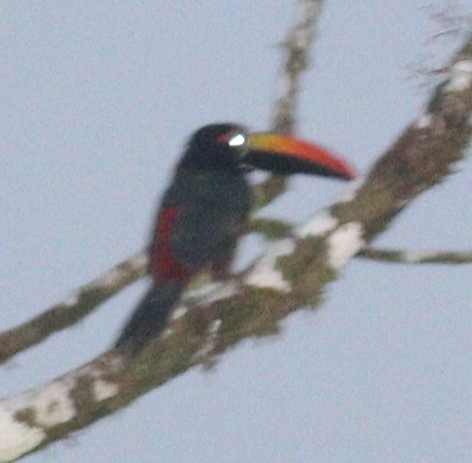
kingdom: Animalia
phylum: Chordata
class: Aves
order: Piciformes
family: Ramphastidae
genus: Pteroglossus
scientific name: Pteroglossus frantzii
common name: Fiery-billed aracari
